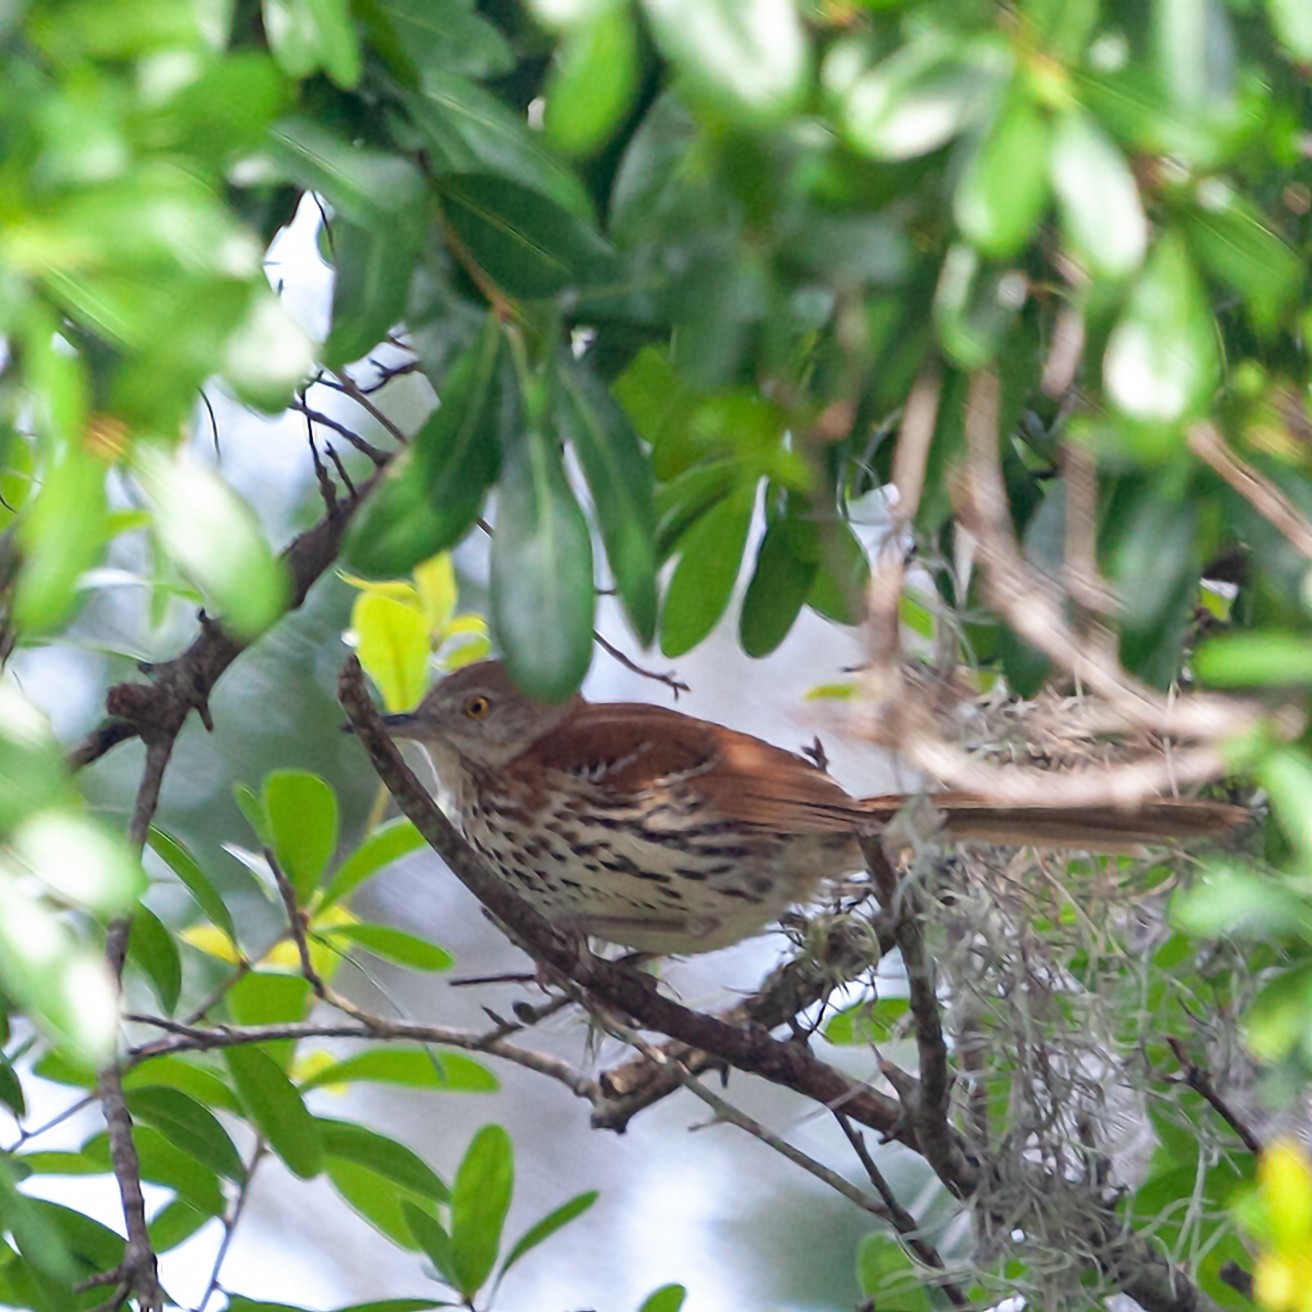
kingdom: Animalia
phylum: Chordata
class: Aves
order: Passeriformes
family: Mimidae
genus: Toxostoma
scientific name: Toxostoma rufum
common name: Brown thrasher
